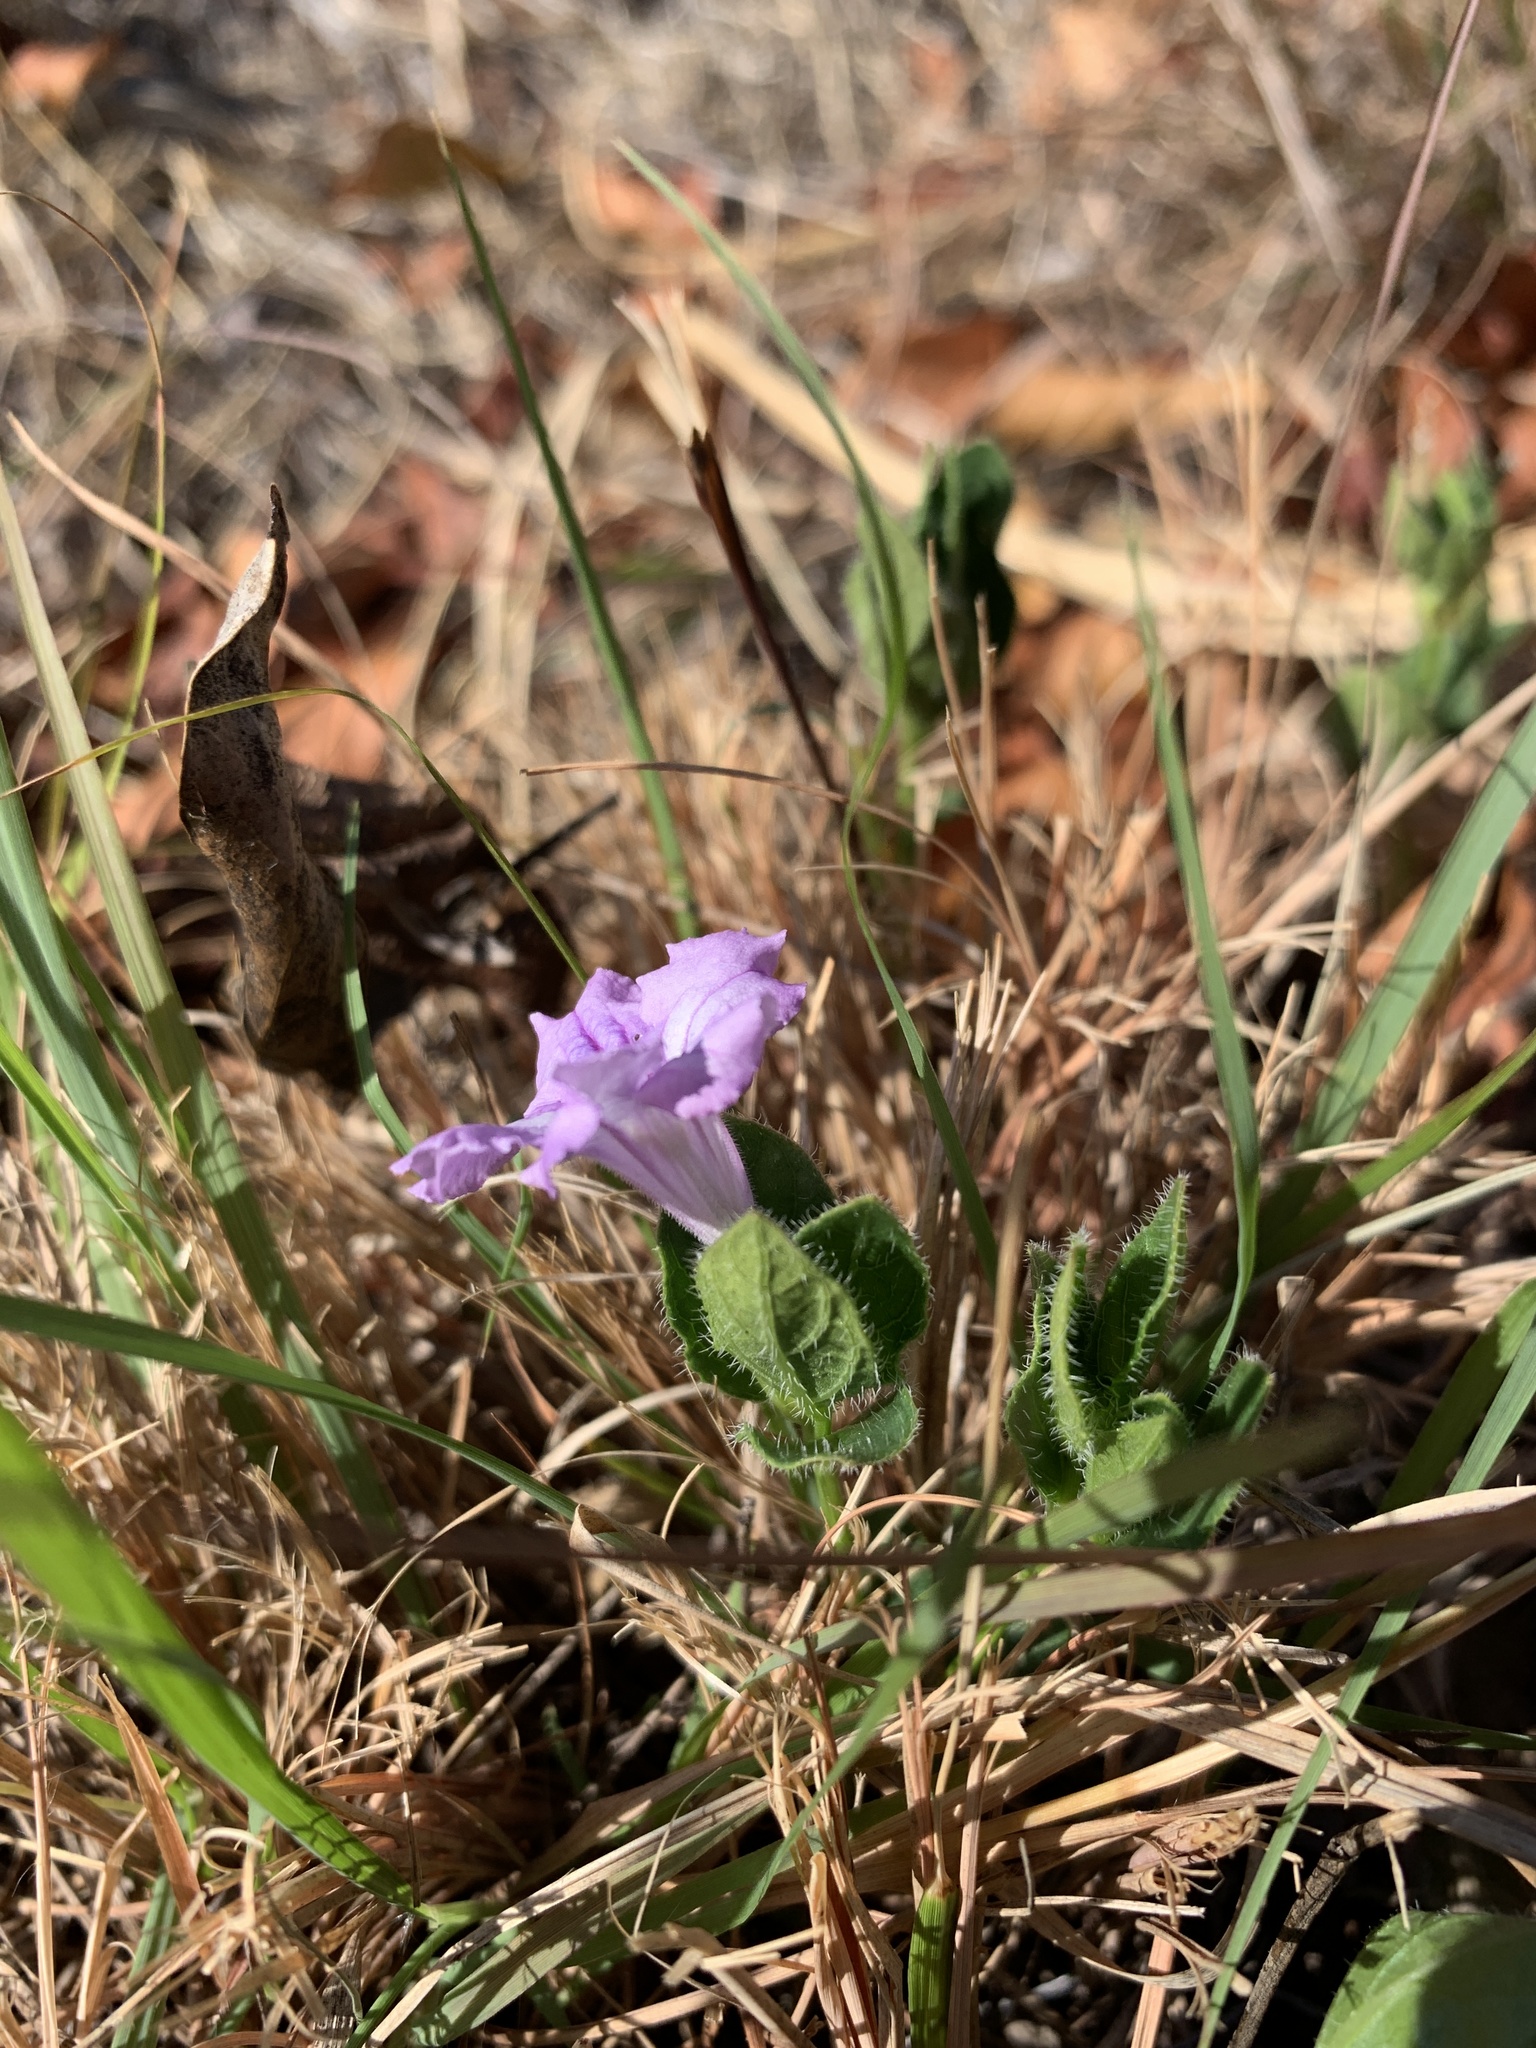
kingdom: Plantae
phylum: Tracheophyta
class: Magnoliopsida
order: Lamiales
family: Acanthaceae
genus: Ruellia
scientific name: Ruellia cordata
